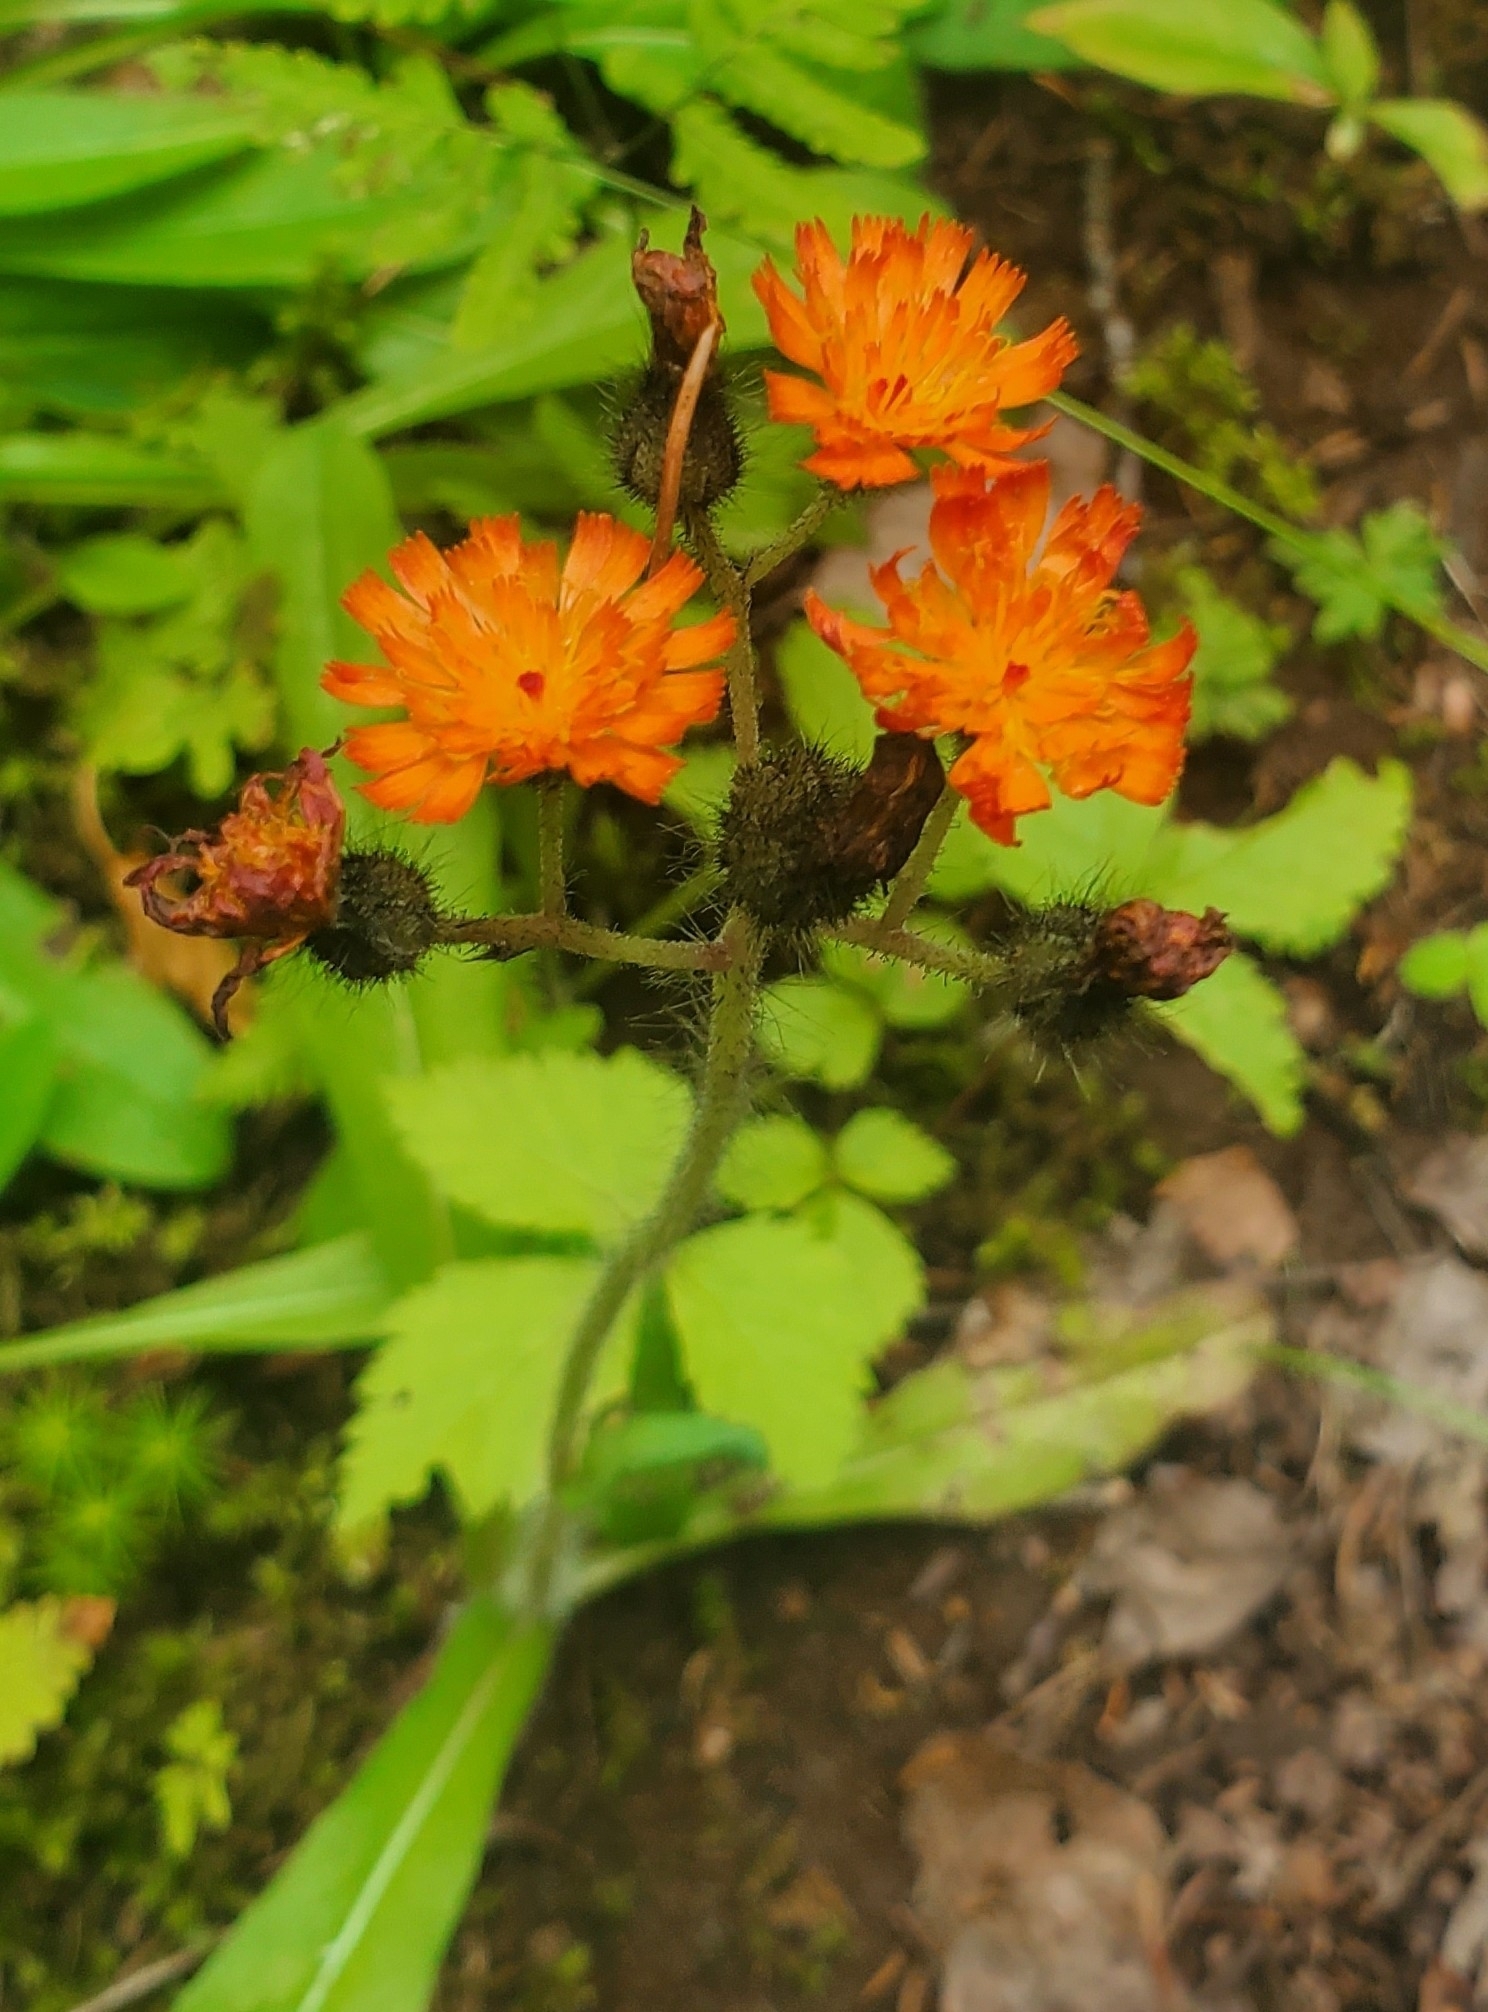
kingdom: Plantae
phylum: Tracheophyta
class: Magnoliopsida
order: Asterales
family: Asteraceae
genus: Pilosella
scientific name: Pilosella aurantiaca
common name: Fox-and-cubs
